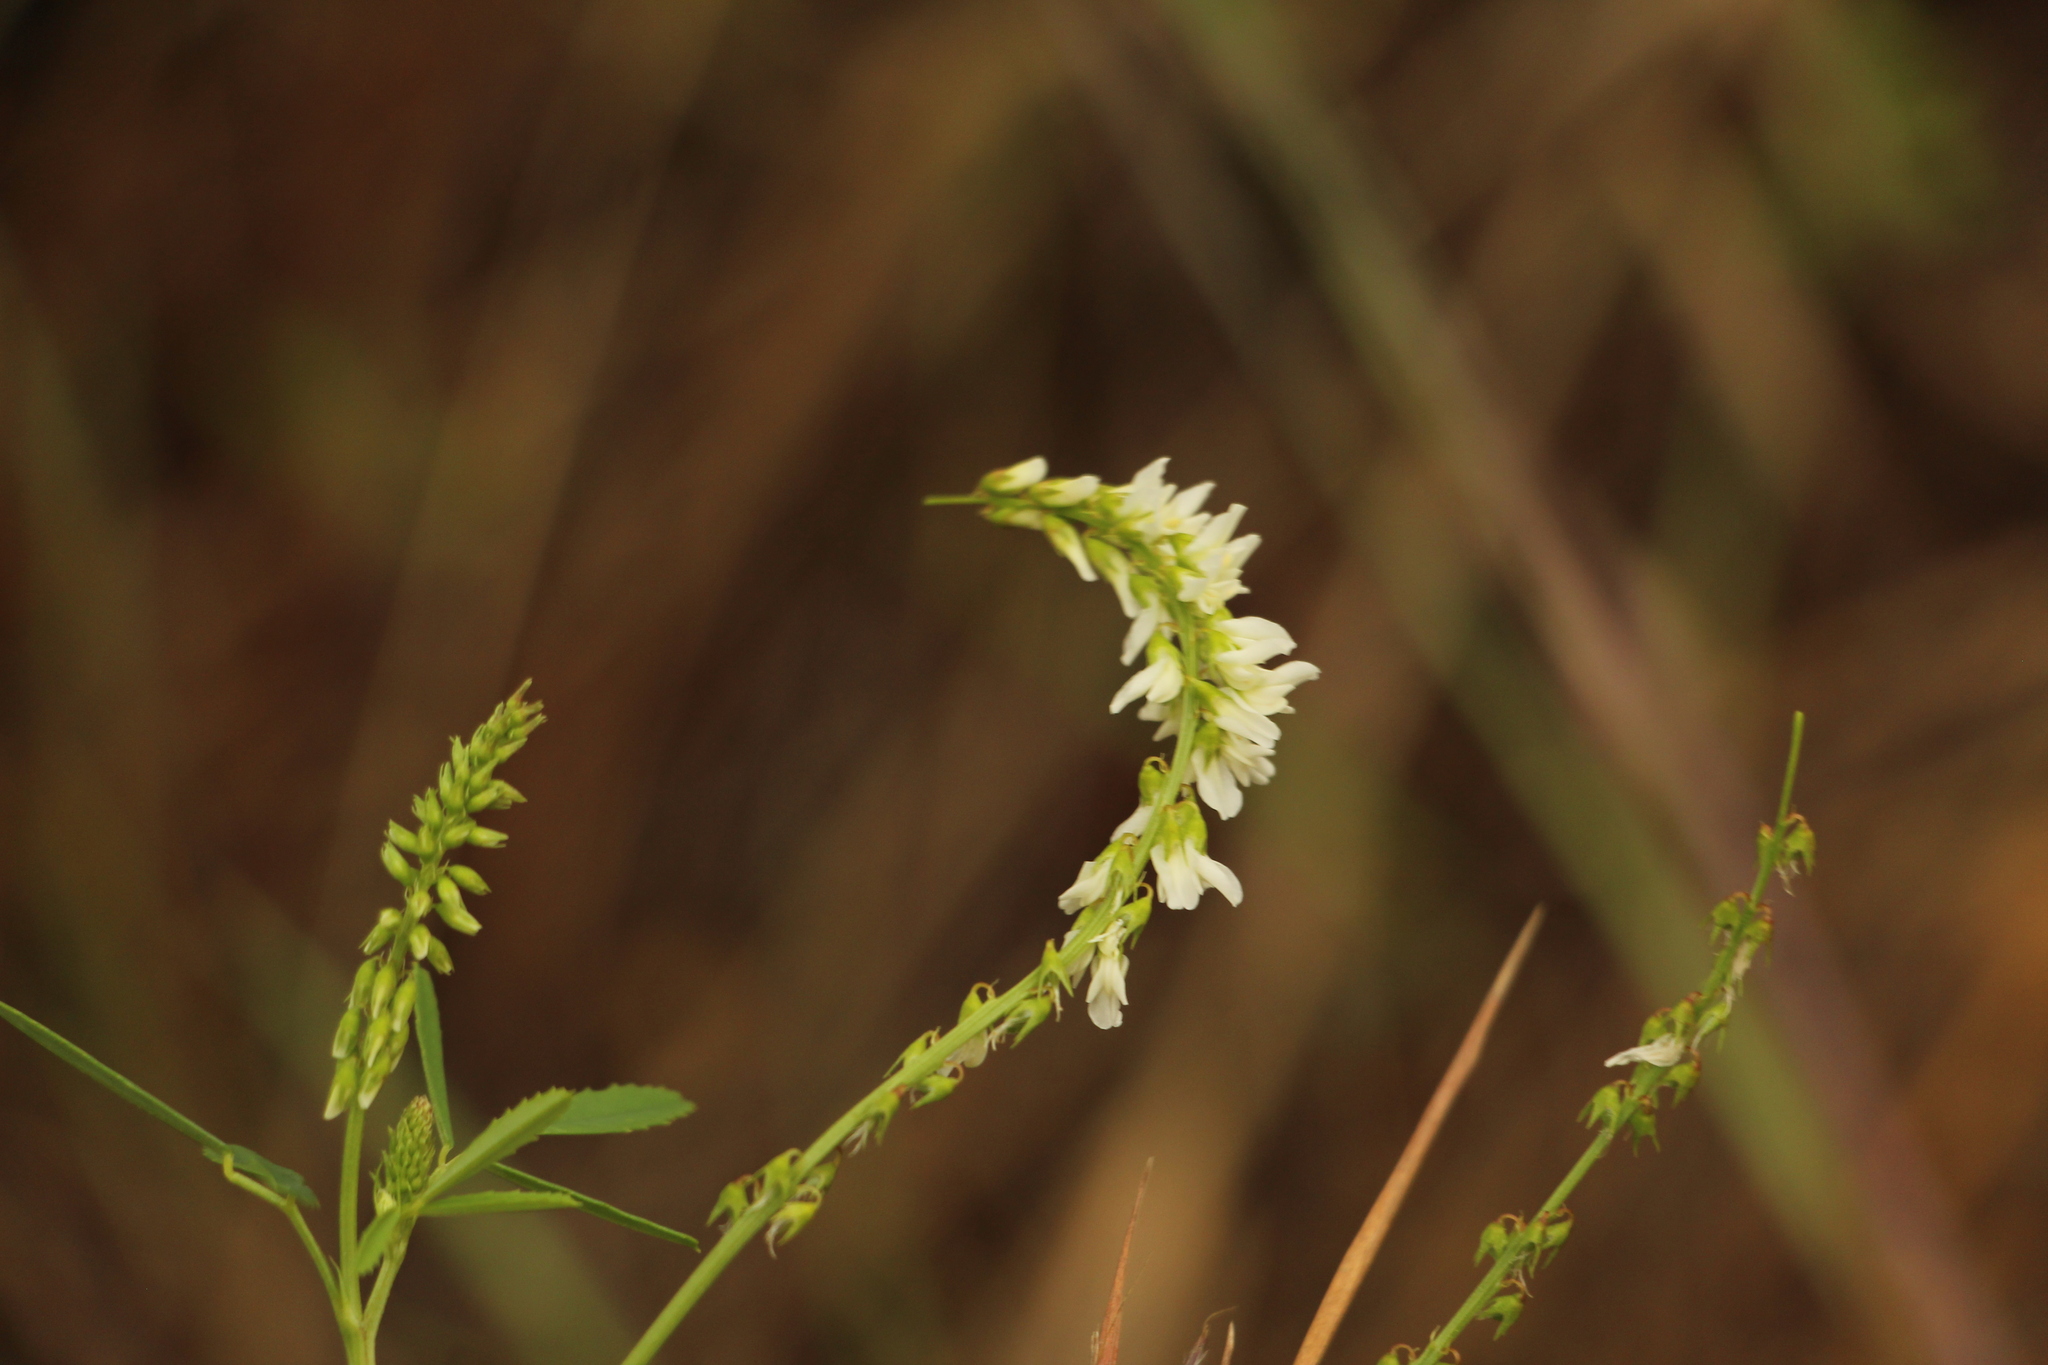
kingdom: Plantae
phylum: Tracheophyta
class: Magnoliopsida
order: Fabales
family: Fabaceae
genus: Melilotus
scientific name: Melilotus albus
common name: White melilot
